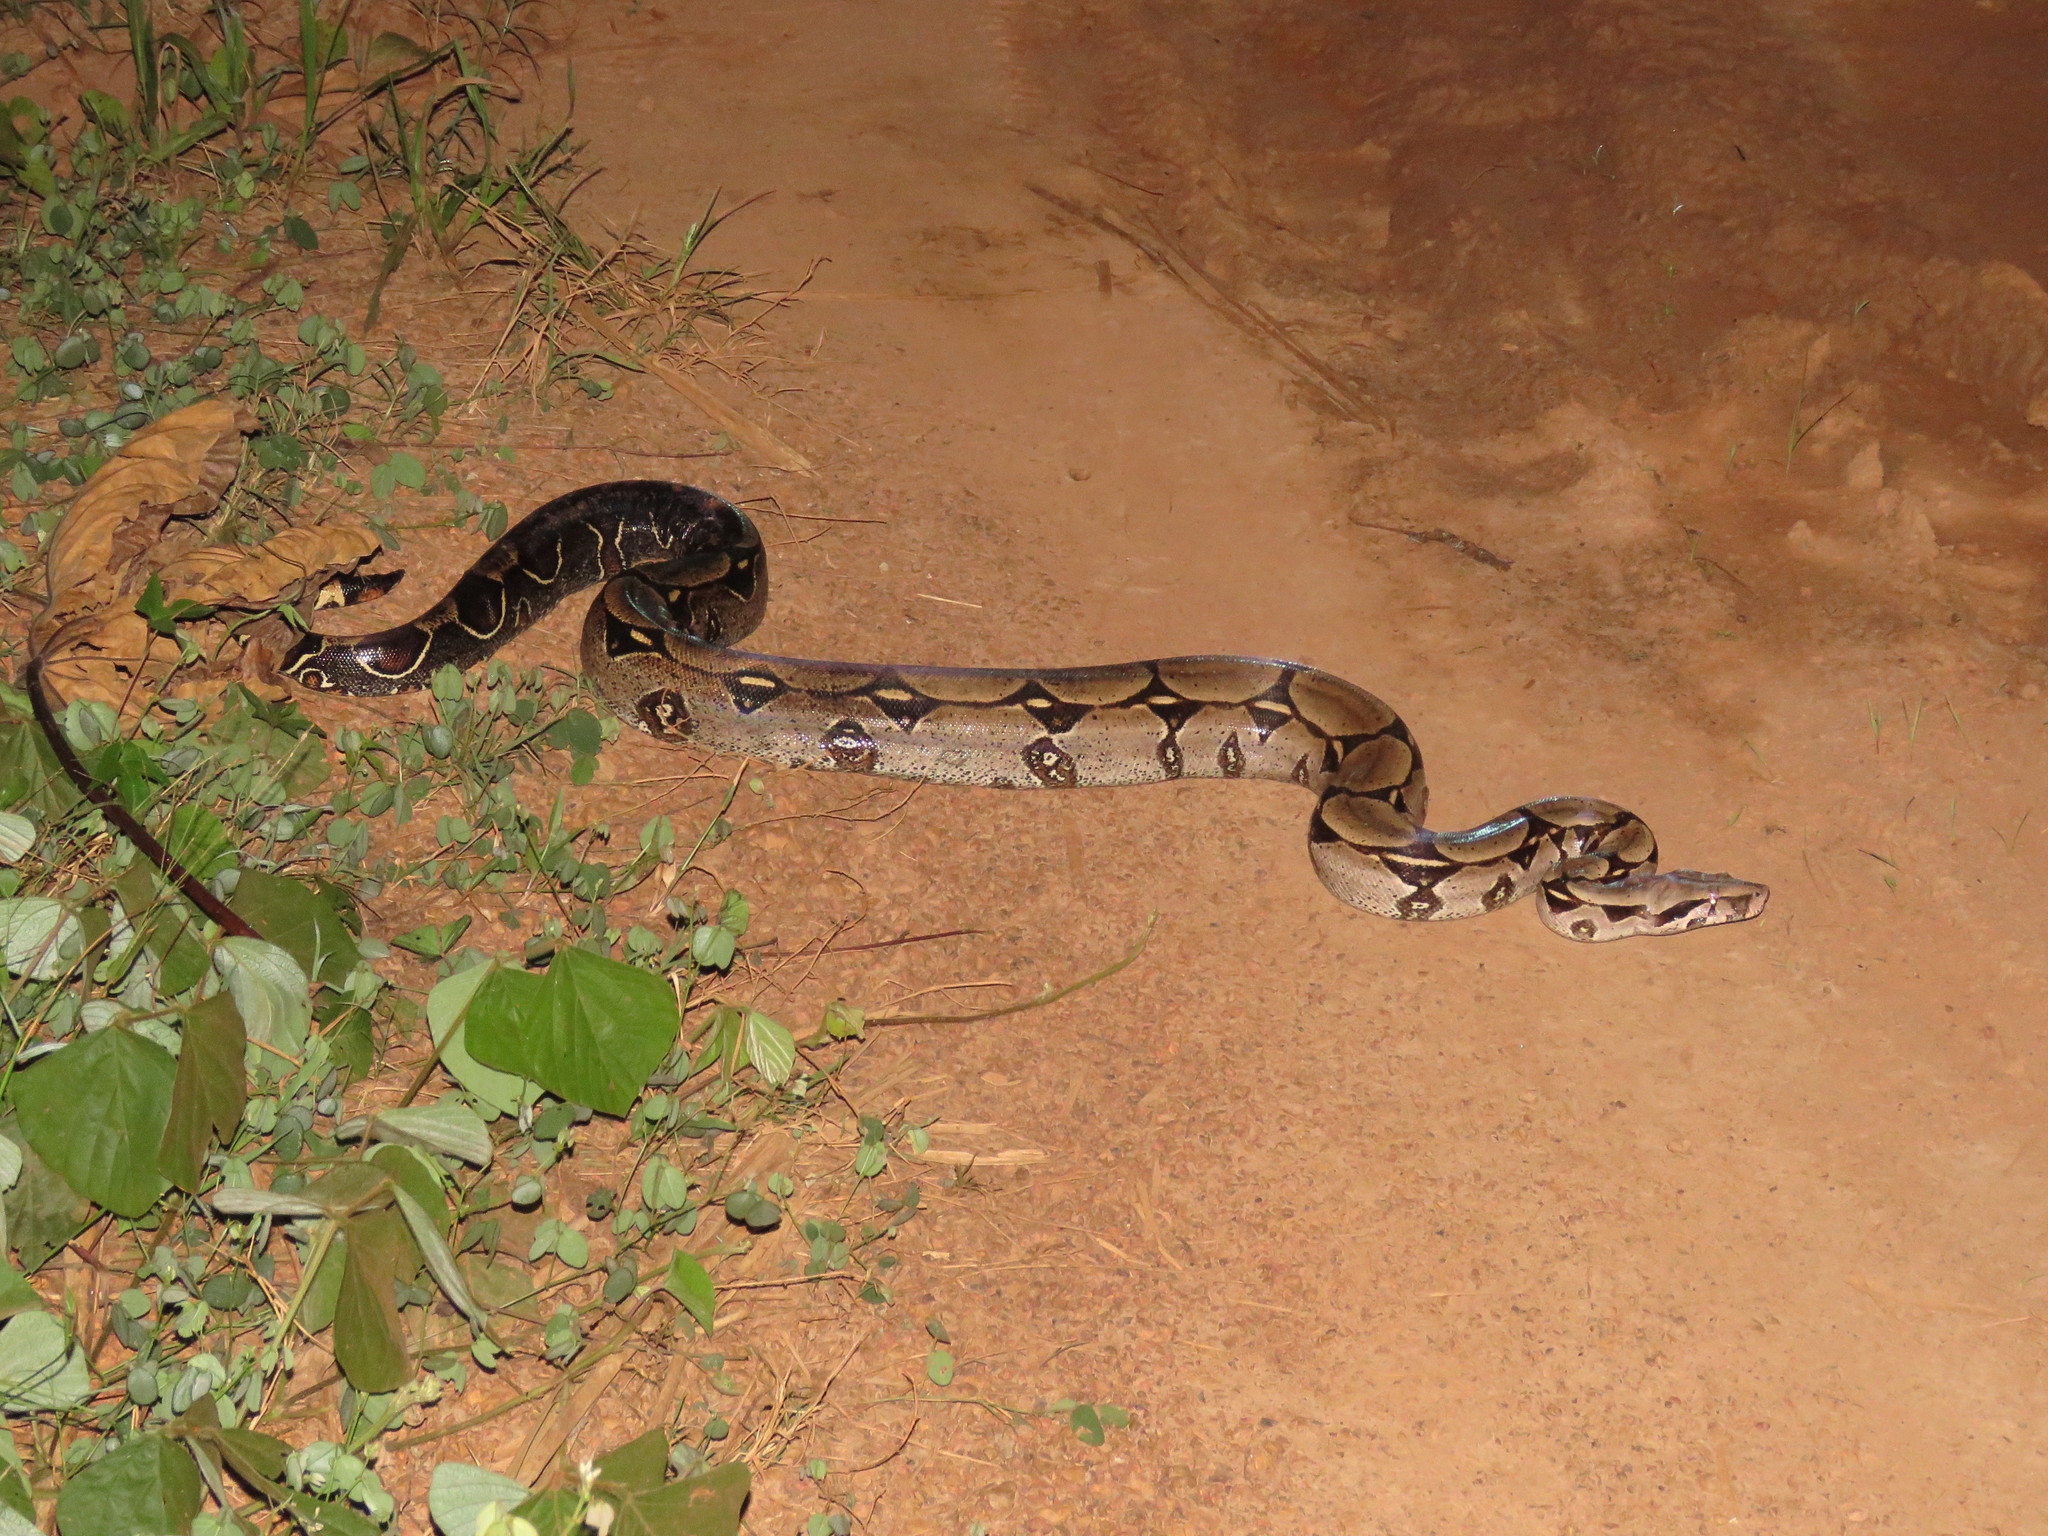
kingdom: Animalia
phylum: Chordata
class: Squamata
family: Boidae
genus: Boa
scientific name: Boa constrictor
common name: Boa constrictor
